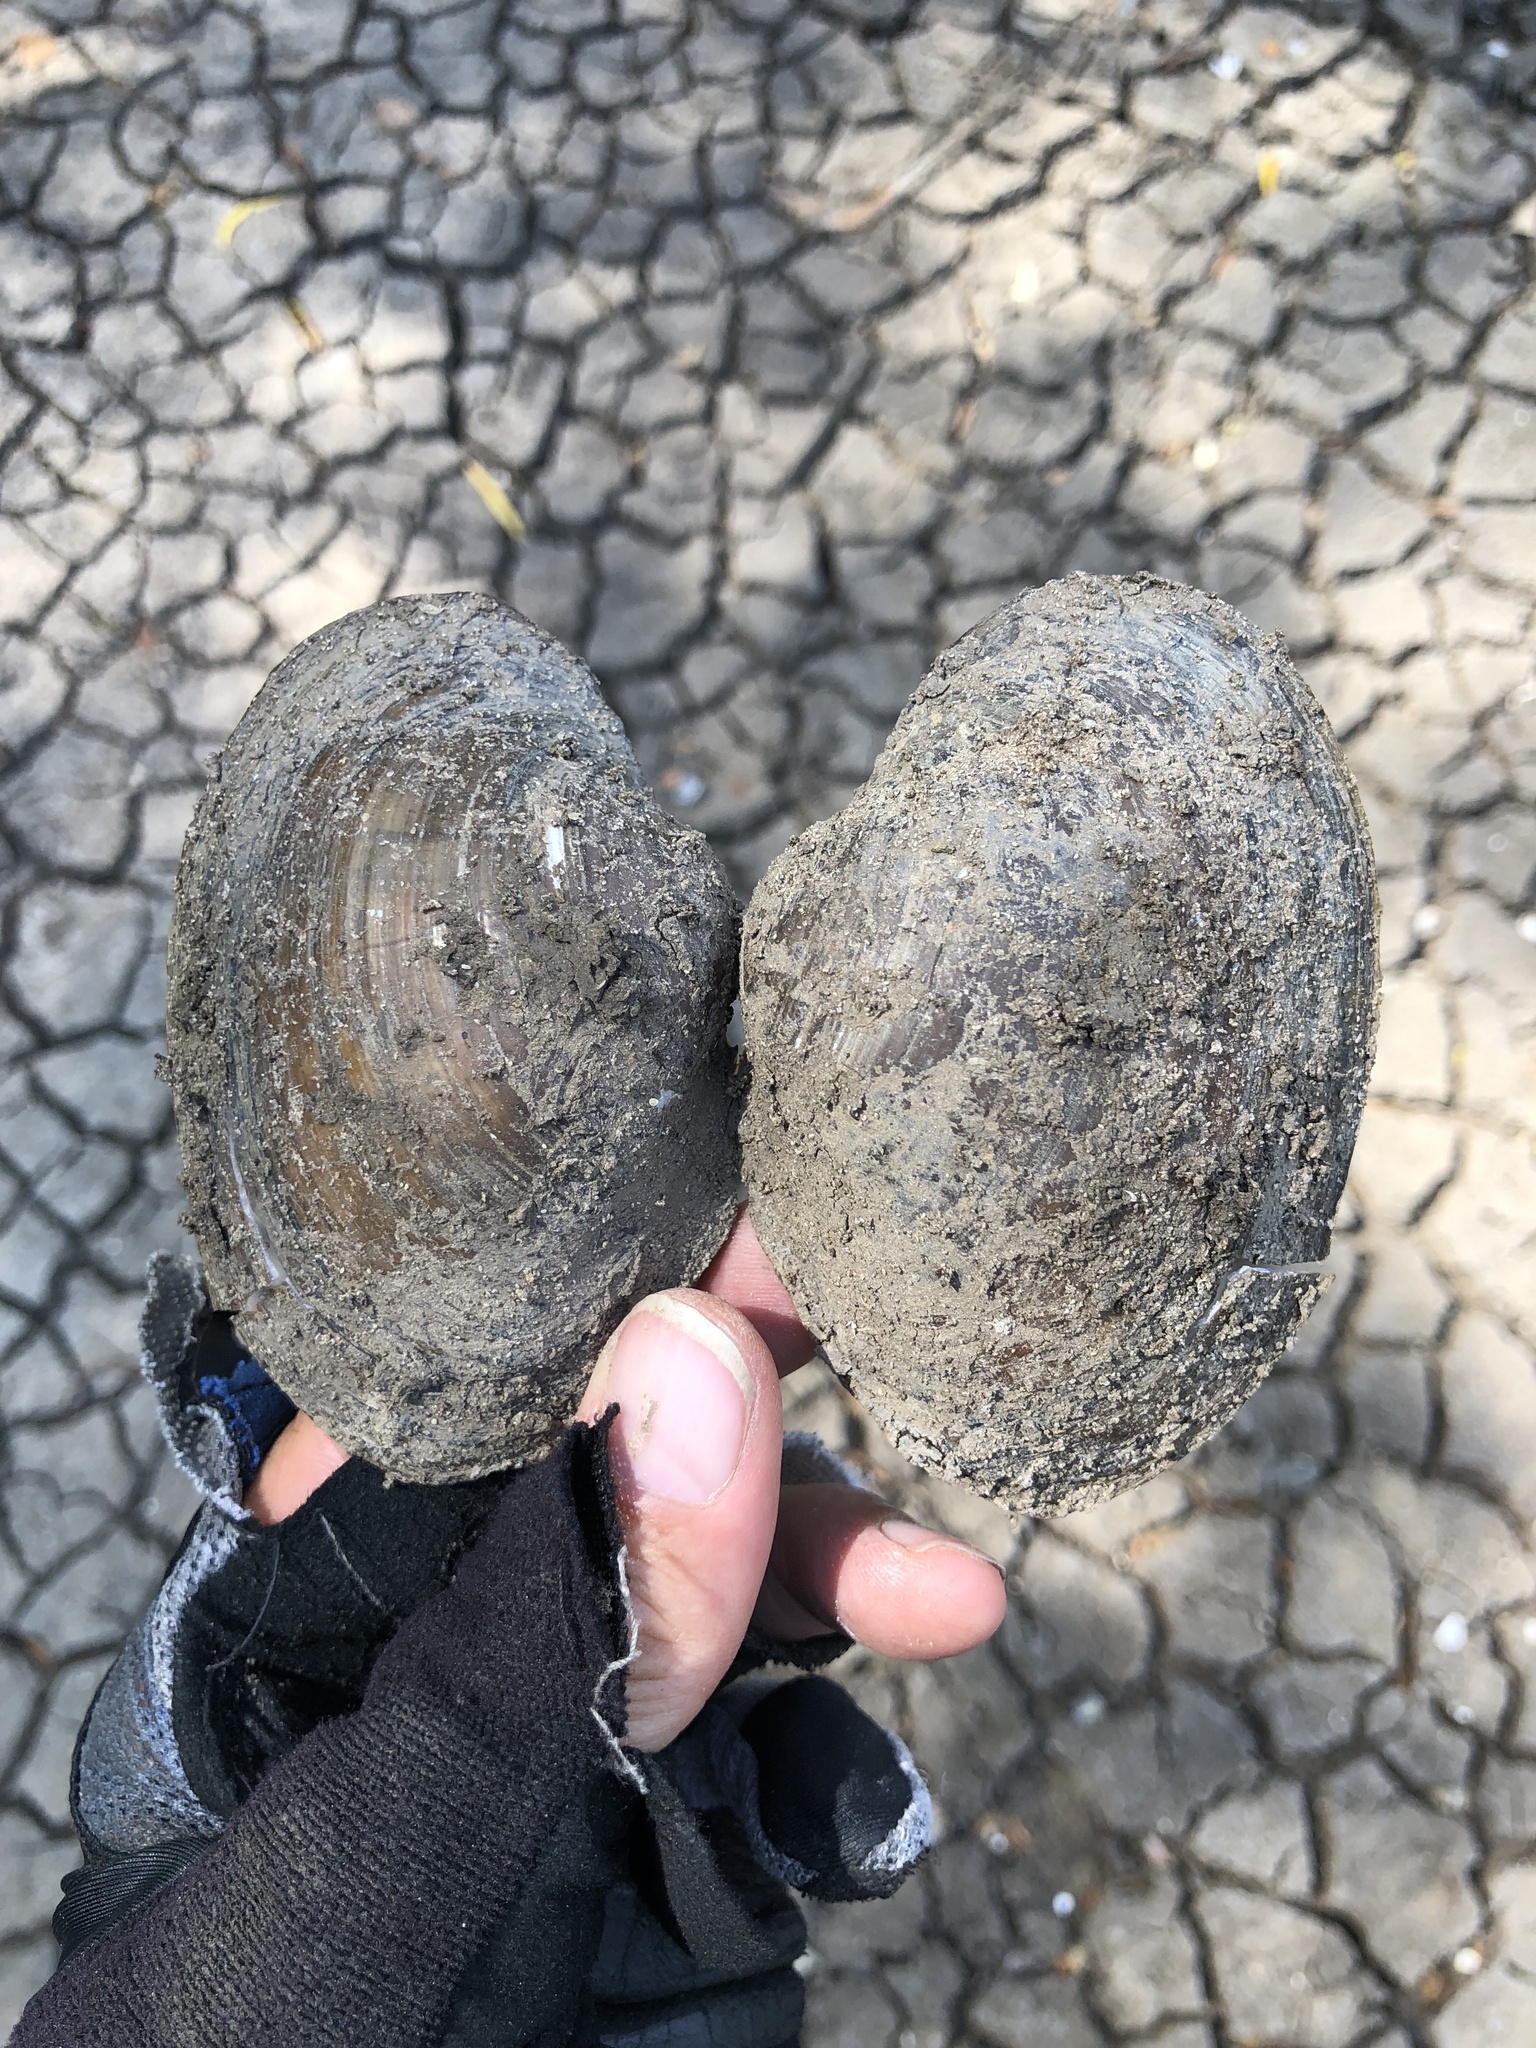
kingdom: Animalia
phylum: Mollusca
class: Bivalvia
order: Unionida
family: Unionidae
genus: Pyganodon
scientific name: Pyganodon grandis
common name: Giant floater
